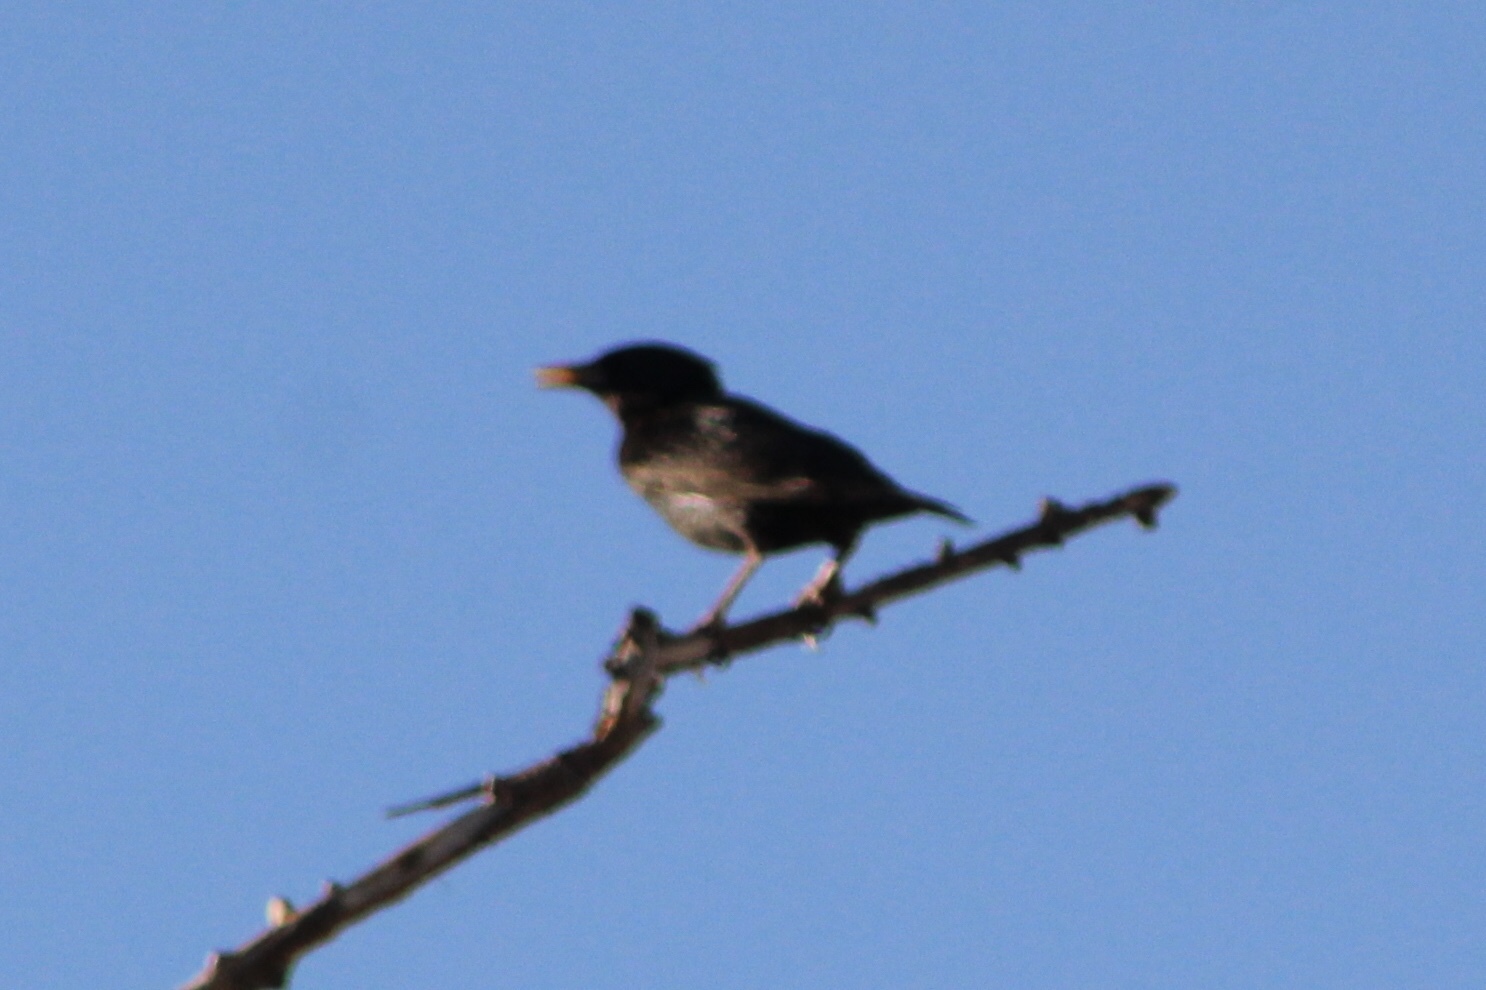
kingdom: Animalia
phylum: Chordata
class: Aves
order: Passeriformes
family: Sturnidae
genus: Sturnus
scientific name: Sturnus vulgaris
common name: Common starling
